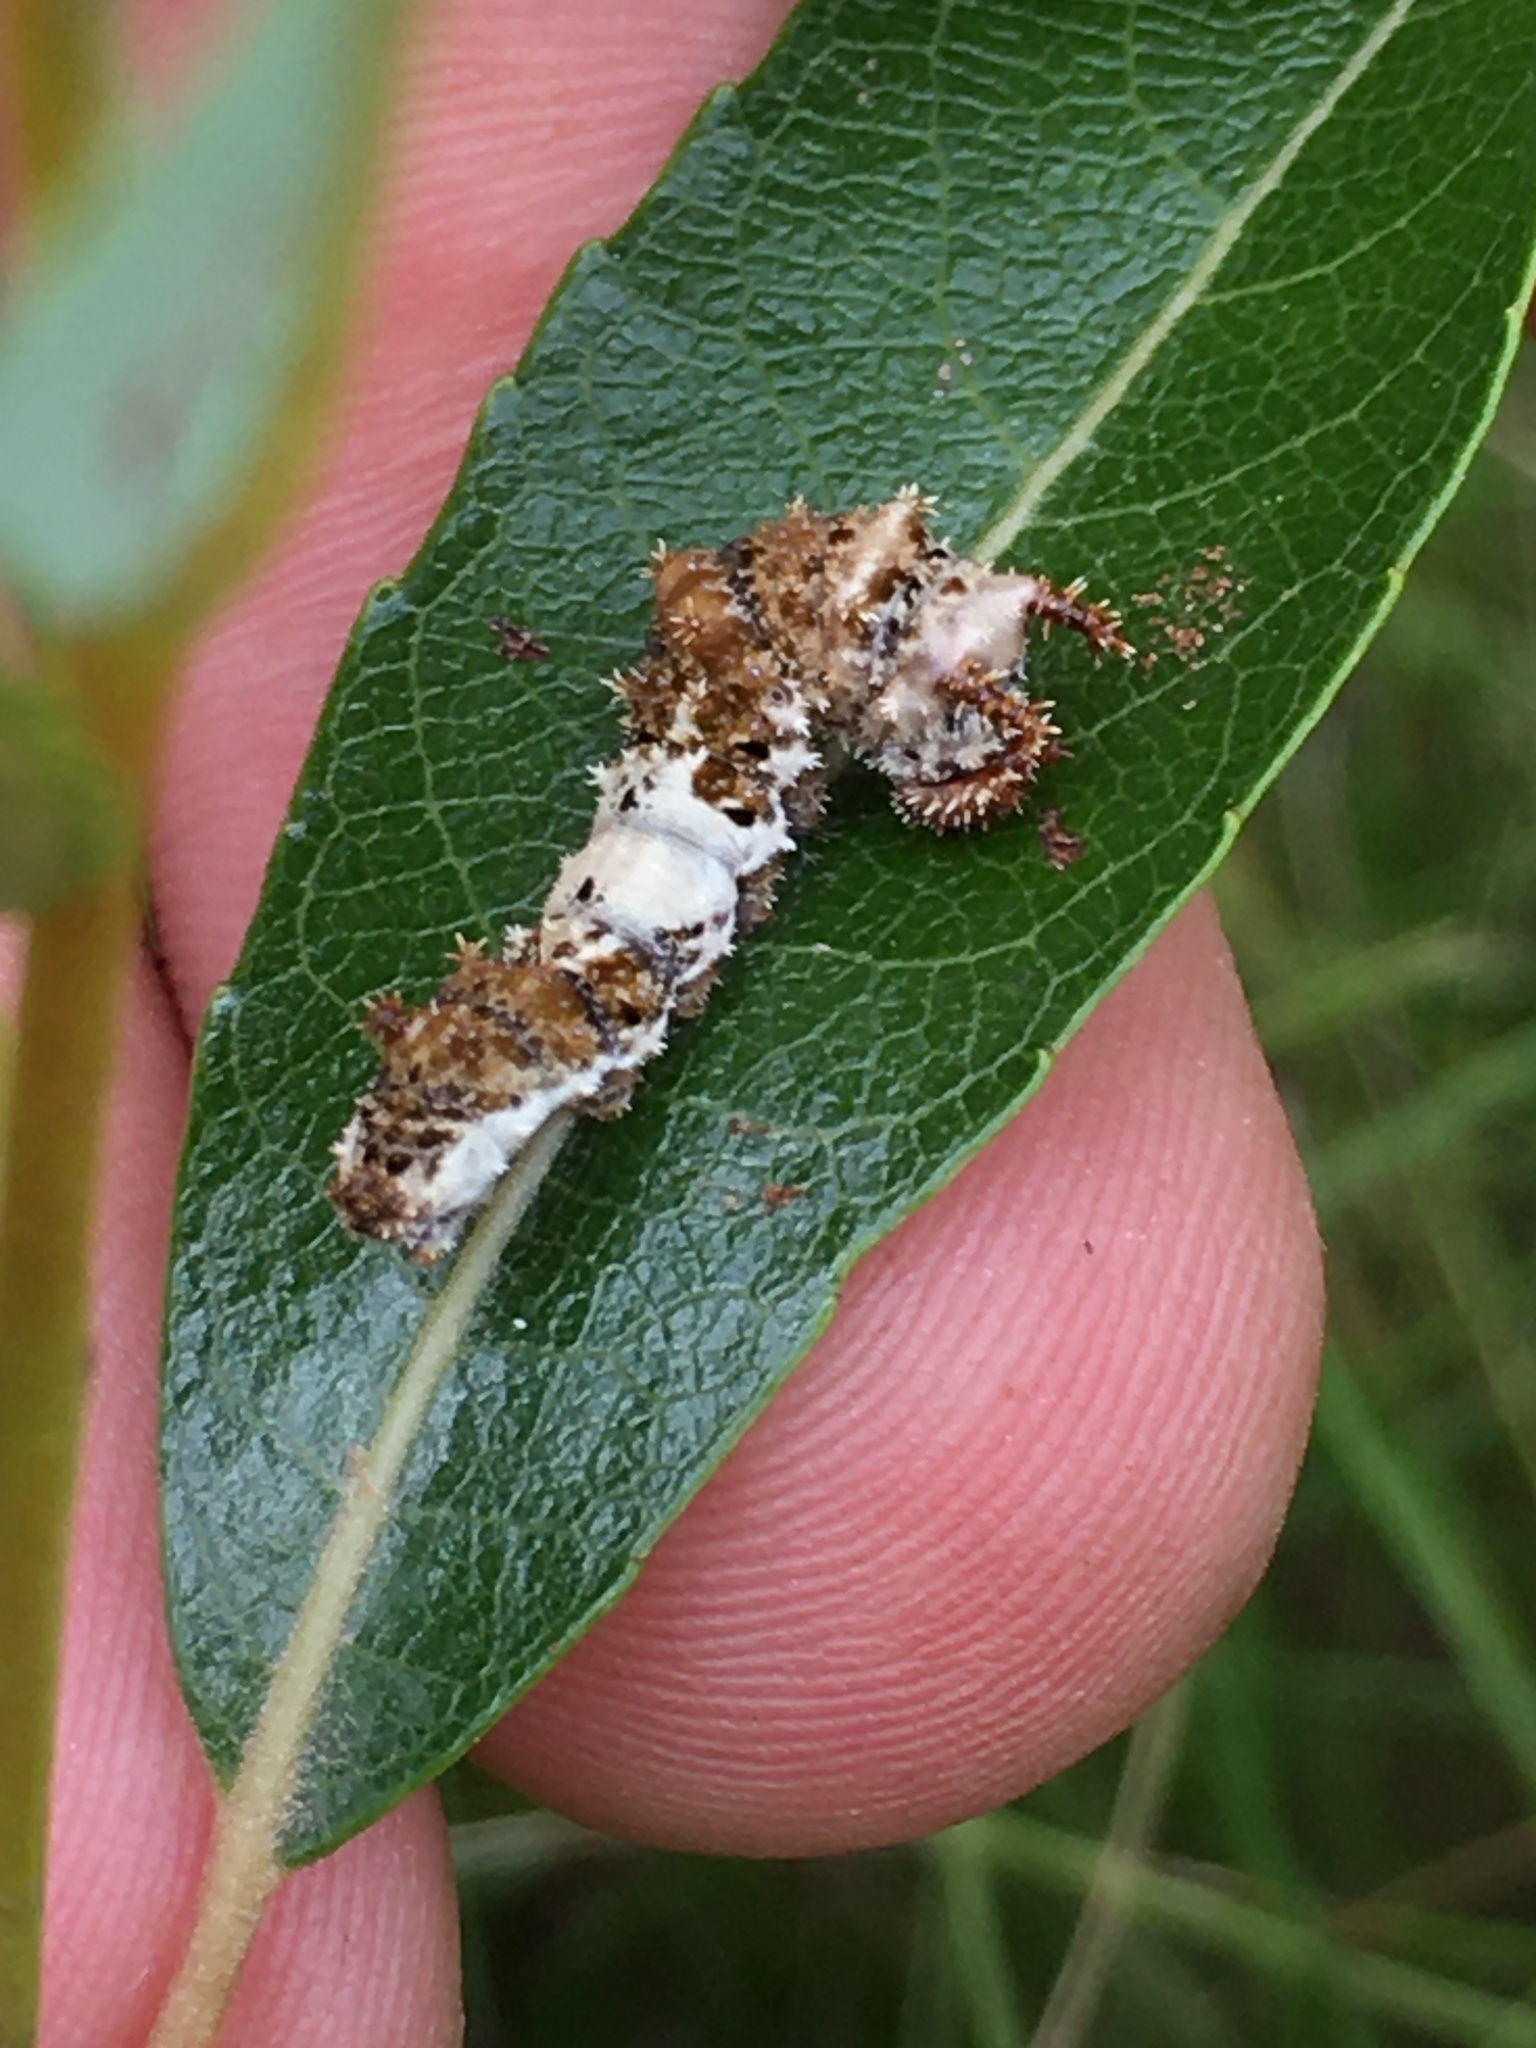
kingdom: Animalia
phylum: Arthropoda
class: Insecta
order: Lepidoptera
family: Nymphalidae
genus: Limenitis
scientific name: Limenitis archippus
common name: Viceroy
